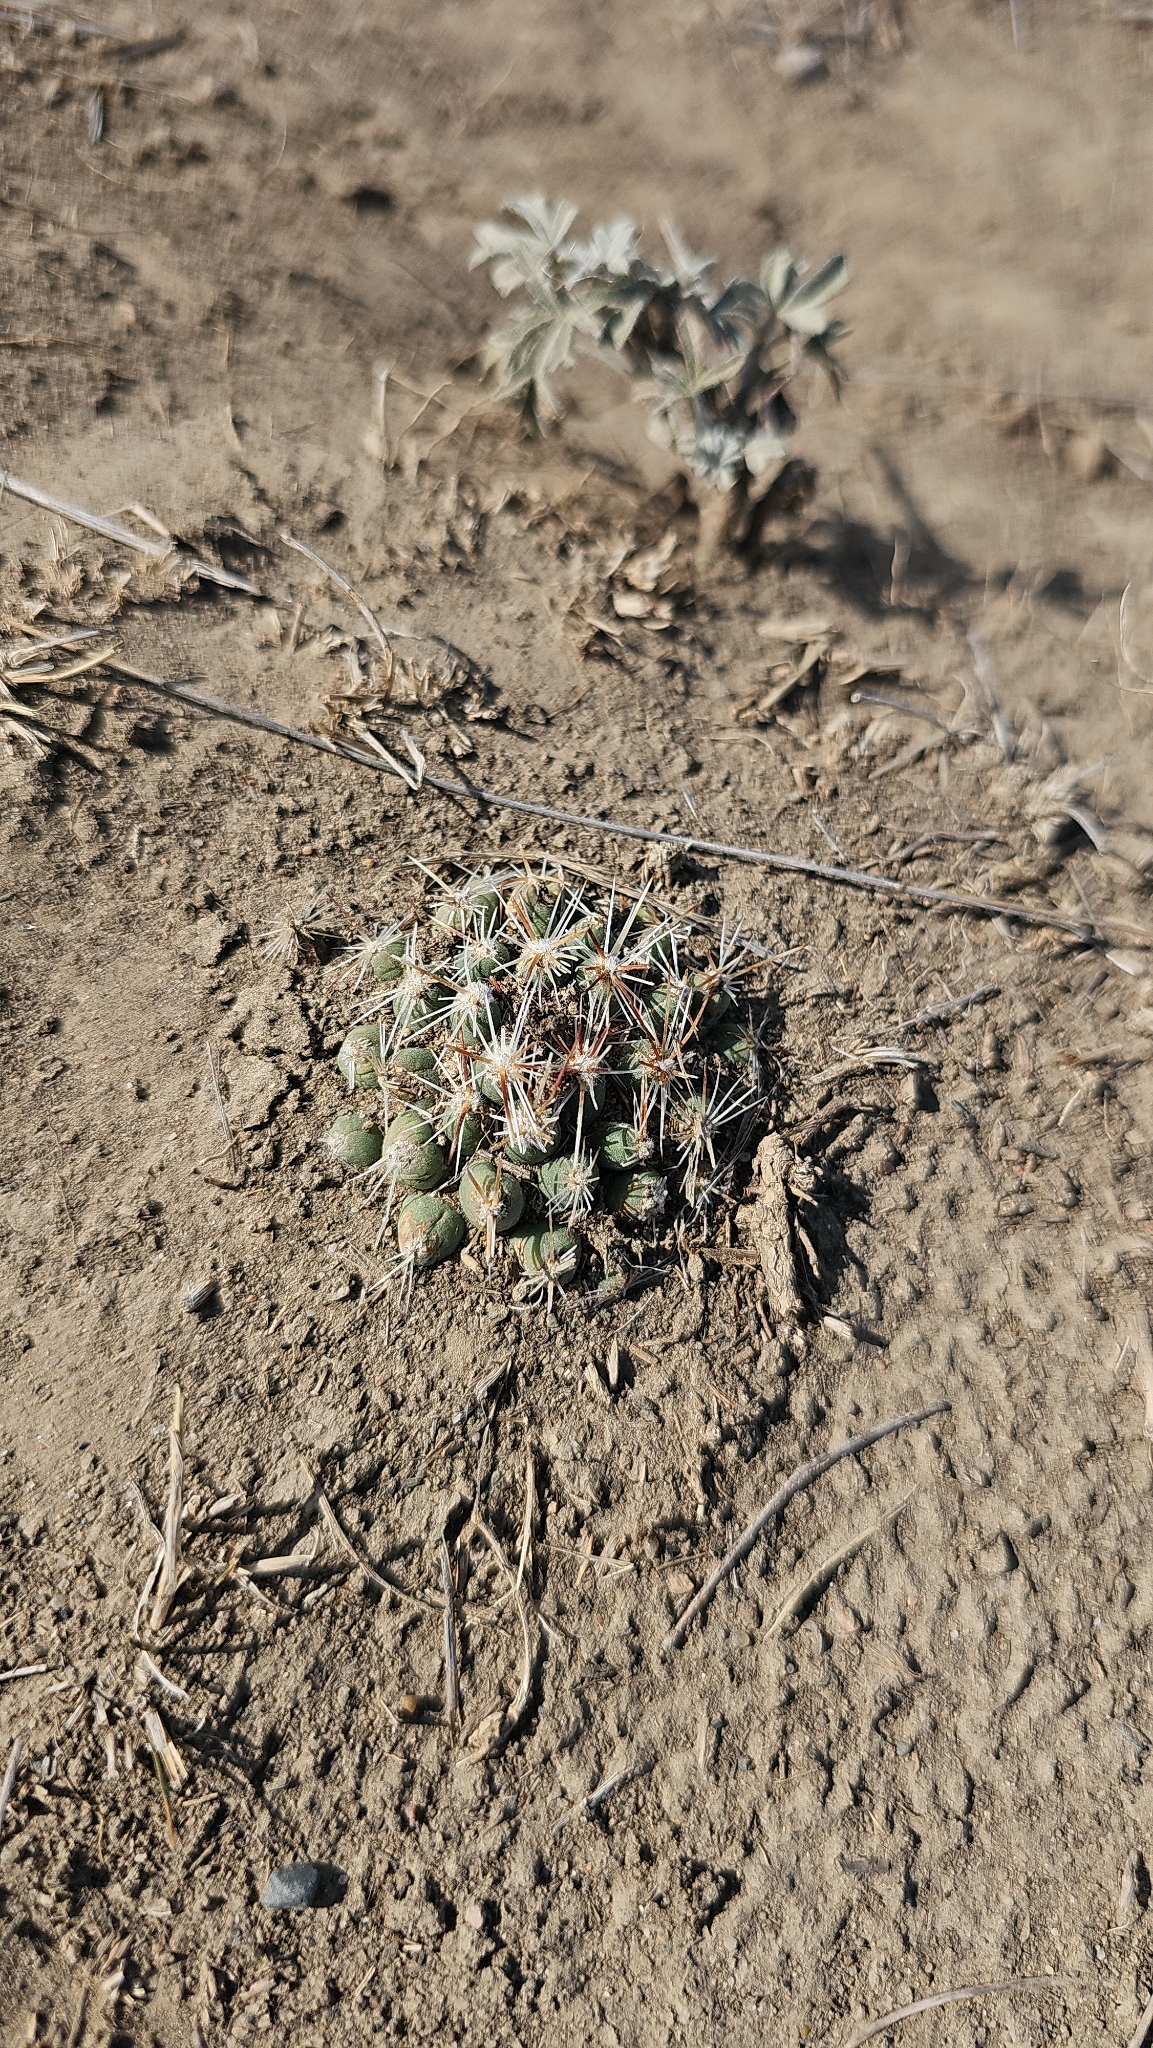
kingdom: Plantae
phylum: Tracheophyta
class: Magnoliopsida
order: Caryophyllales
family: Cactaceae
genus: Pelecyphora
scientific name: Pelecyphora vivipara
